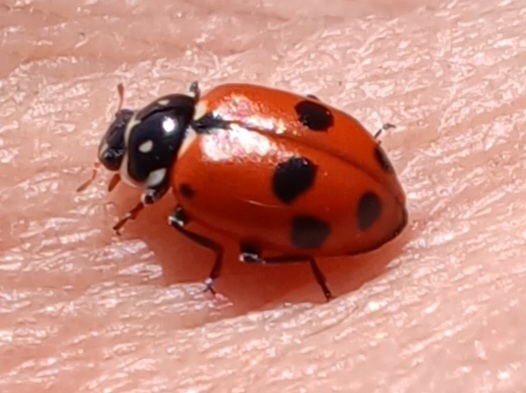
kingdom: Animalia
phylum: Arthropoda
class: Insecta
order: Coleoptera
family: Coccinellidae
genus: Hippodamia
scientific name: Hippodamia variegata
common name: Ladybird beetle
